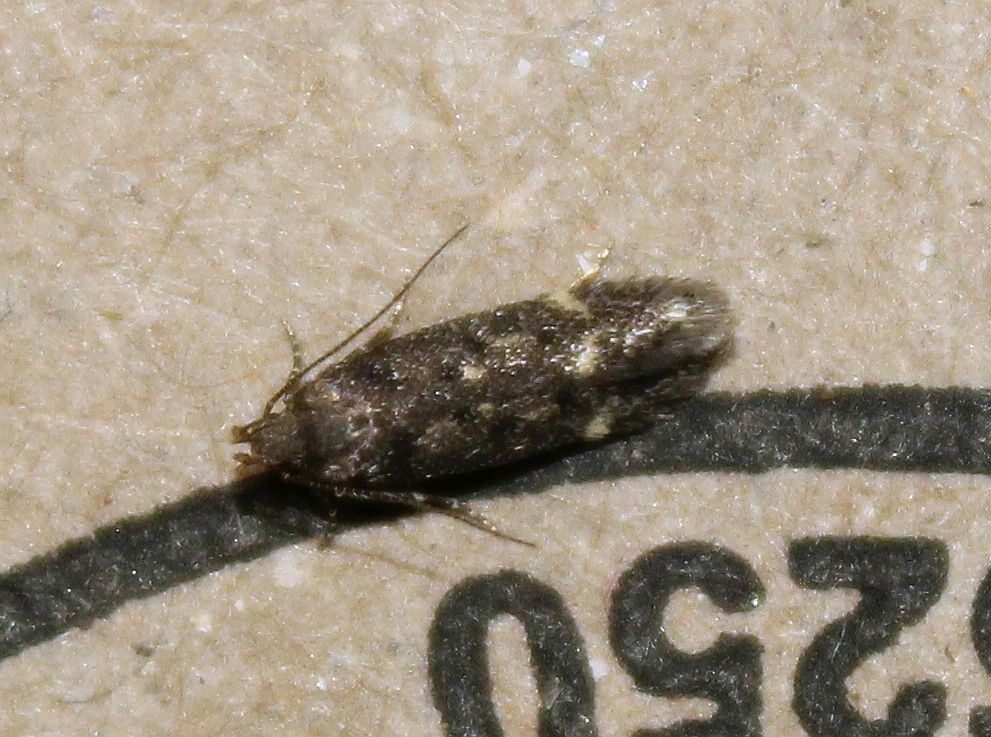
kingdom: Animalia
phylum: Arthropoda
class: Insecta
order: Lepidoptera
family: Gelechiidae
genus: Bryotropha
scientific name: Bryotropha affinis
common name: Dark groundling
